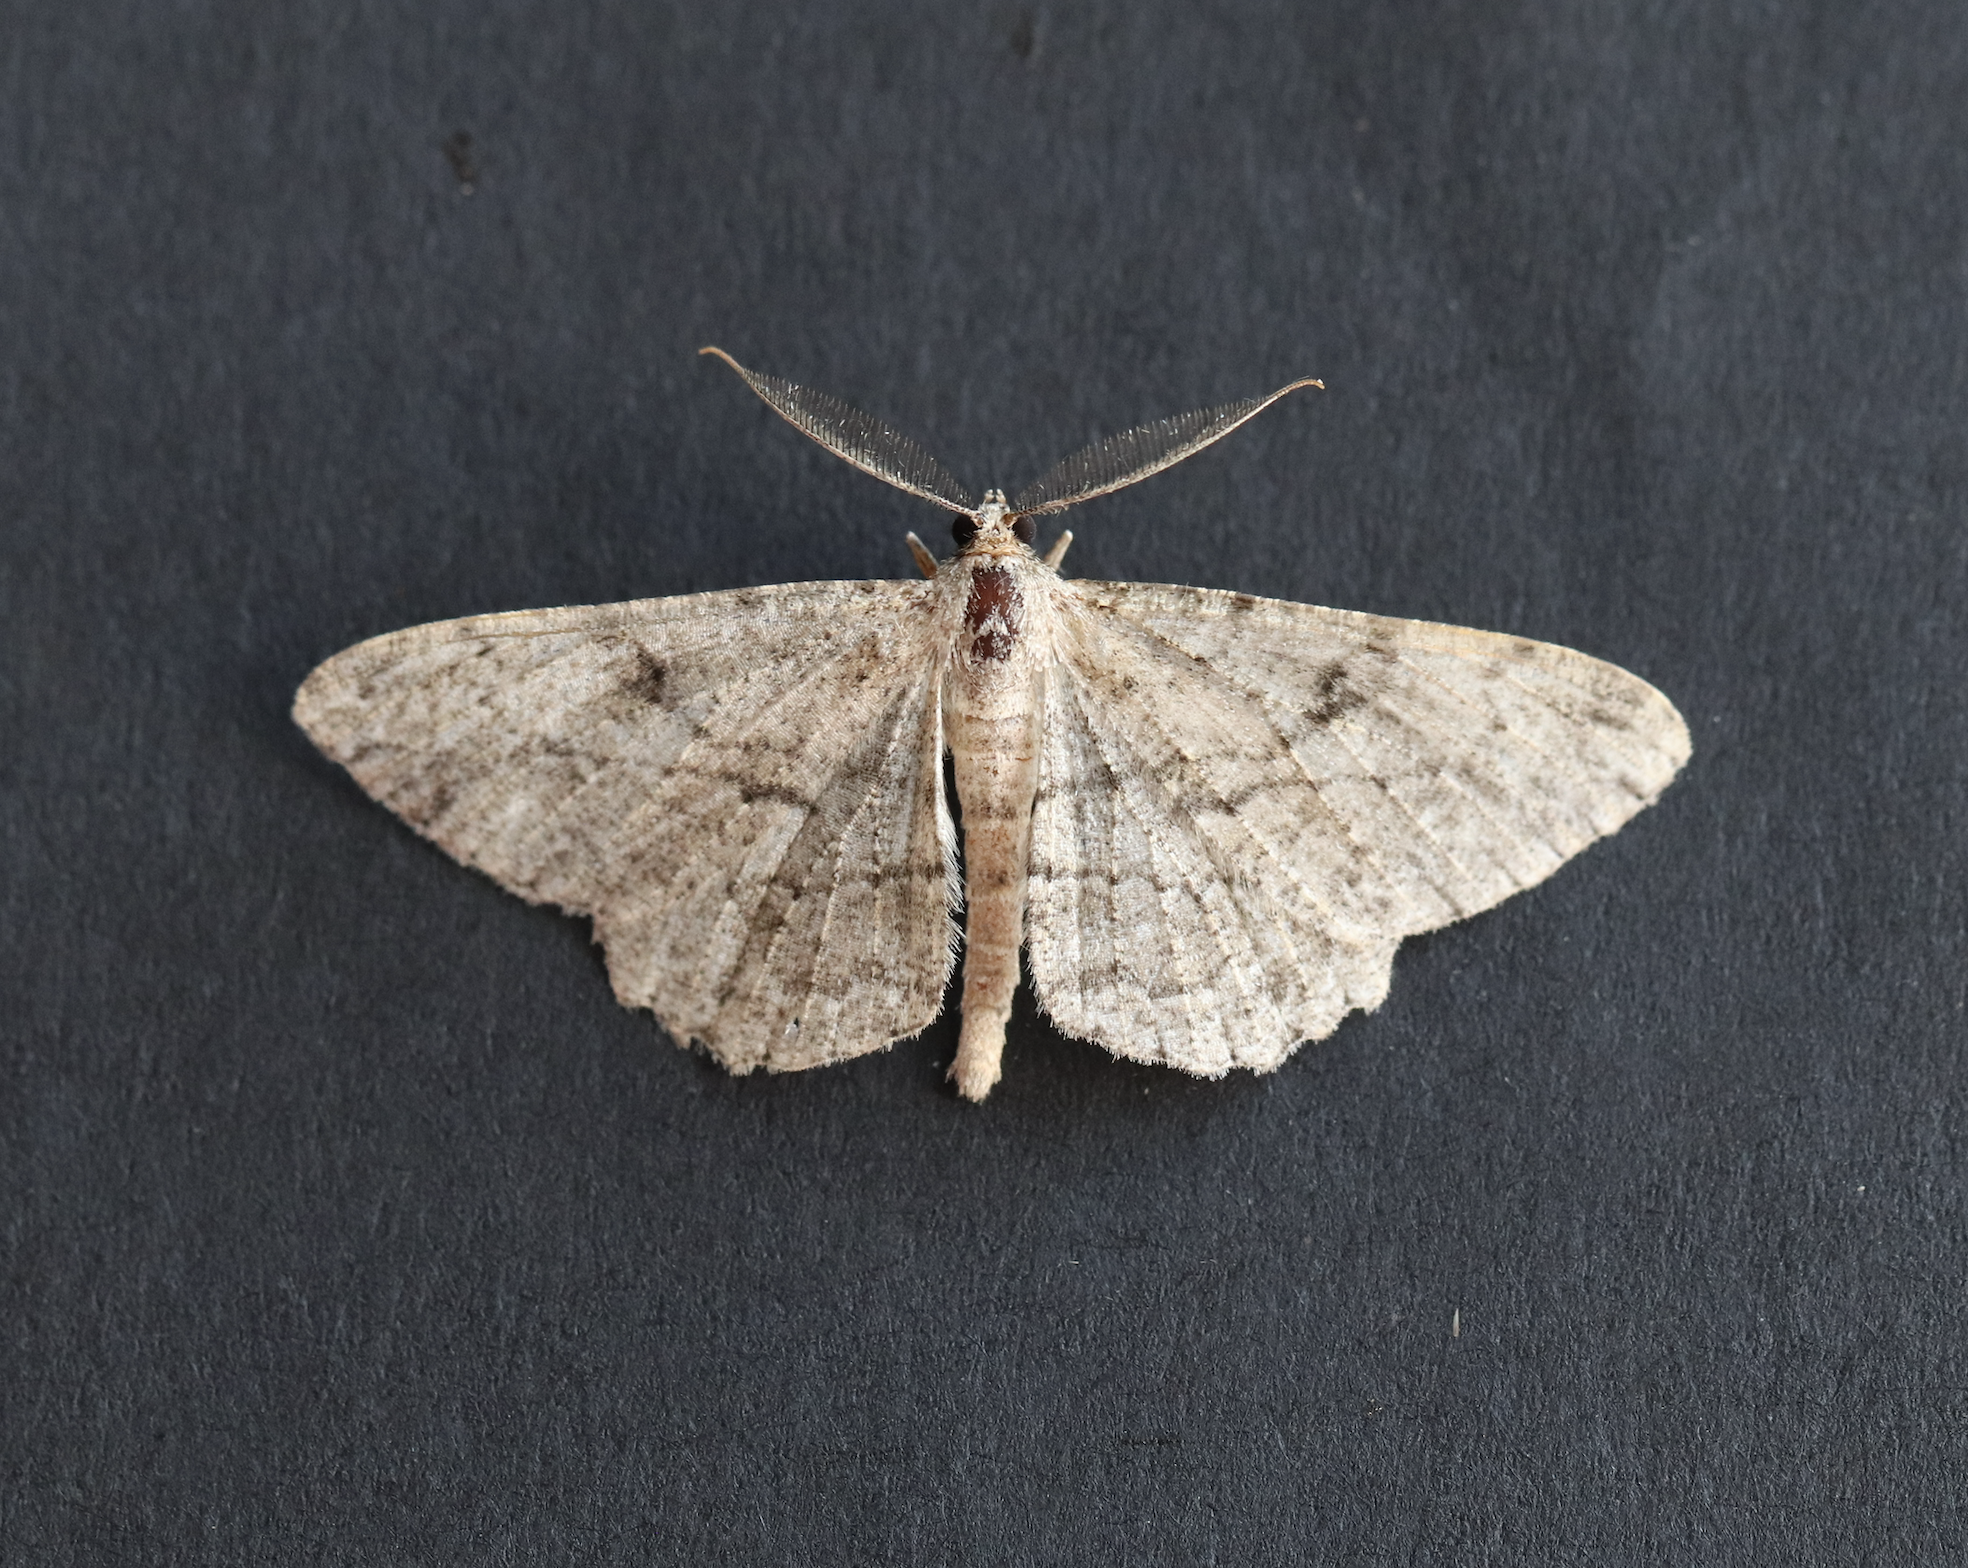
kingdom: Animalia
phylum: Arthropoda
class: Insecta
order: Lepidoptera
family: Geometridae
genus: Peribatodes
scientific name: Peribatodes rhomboidaria
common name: Willow beauty
